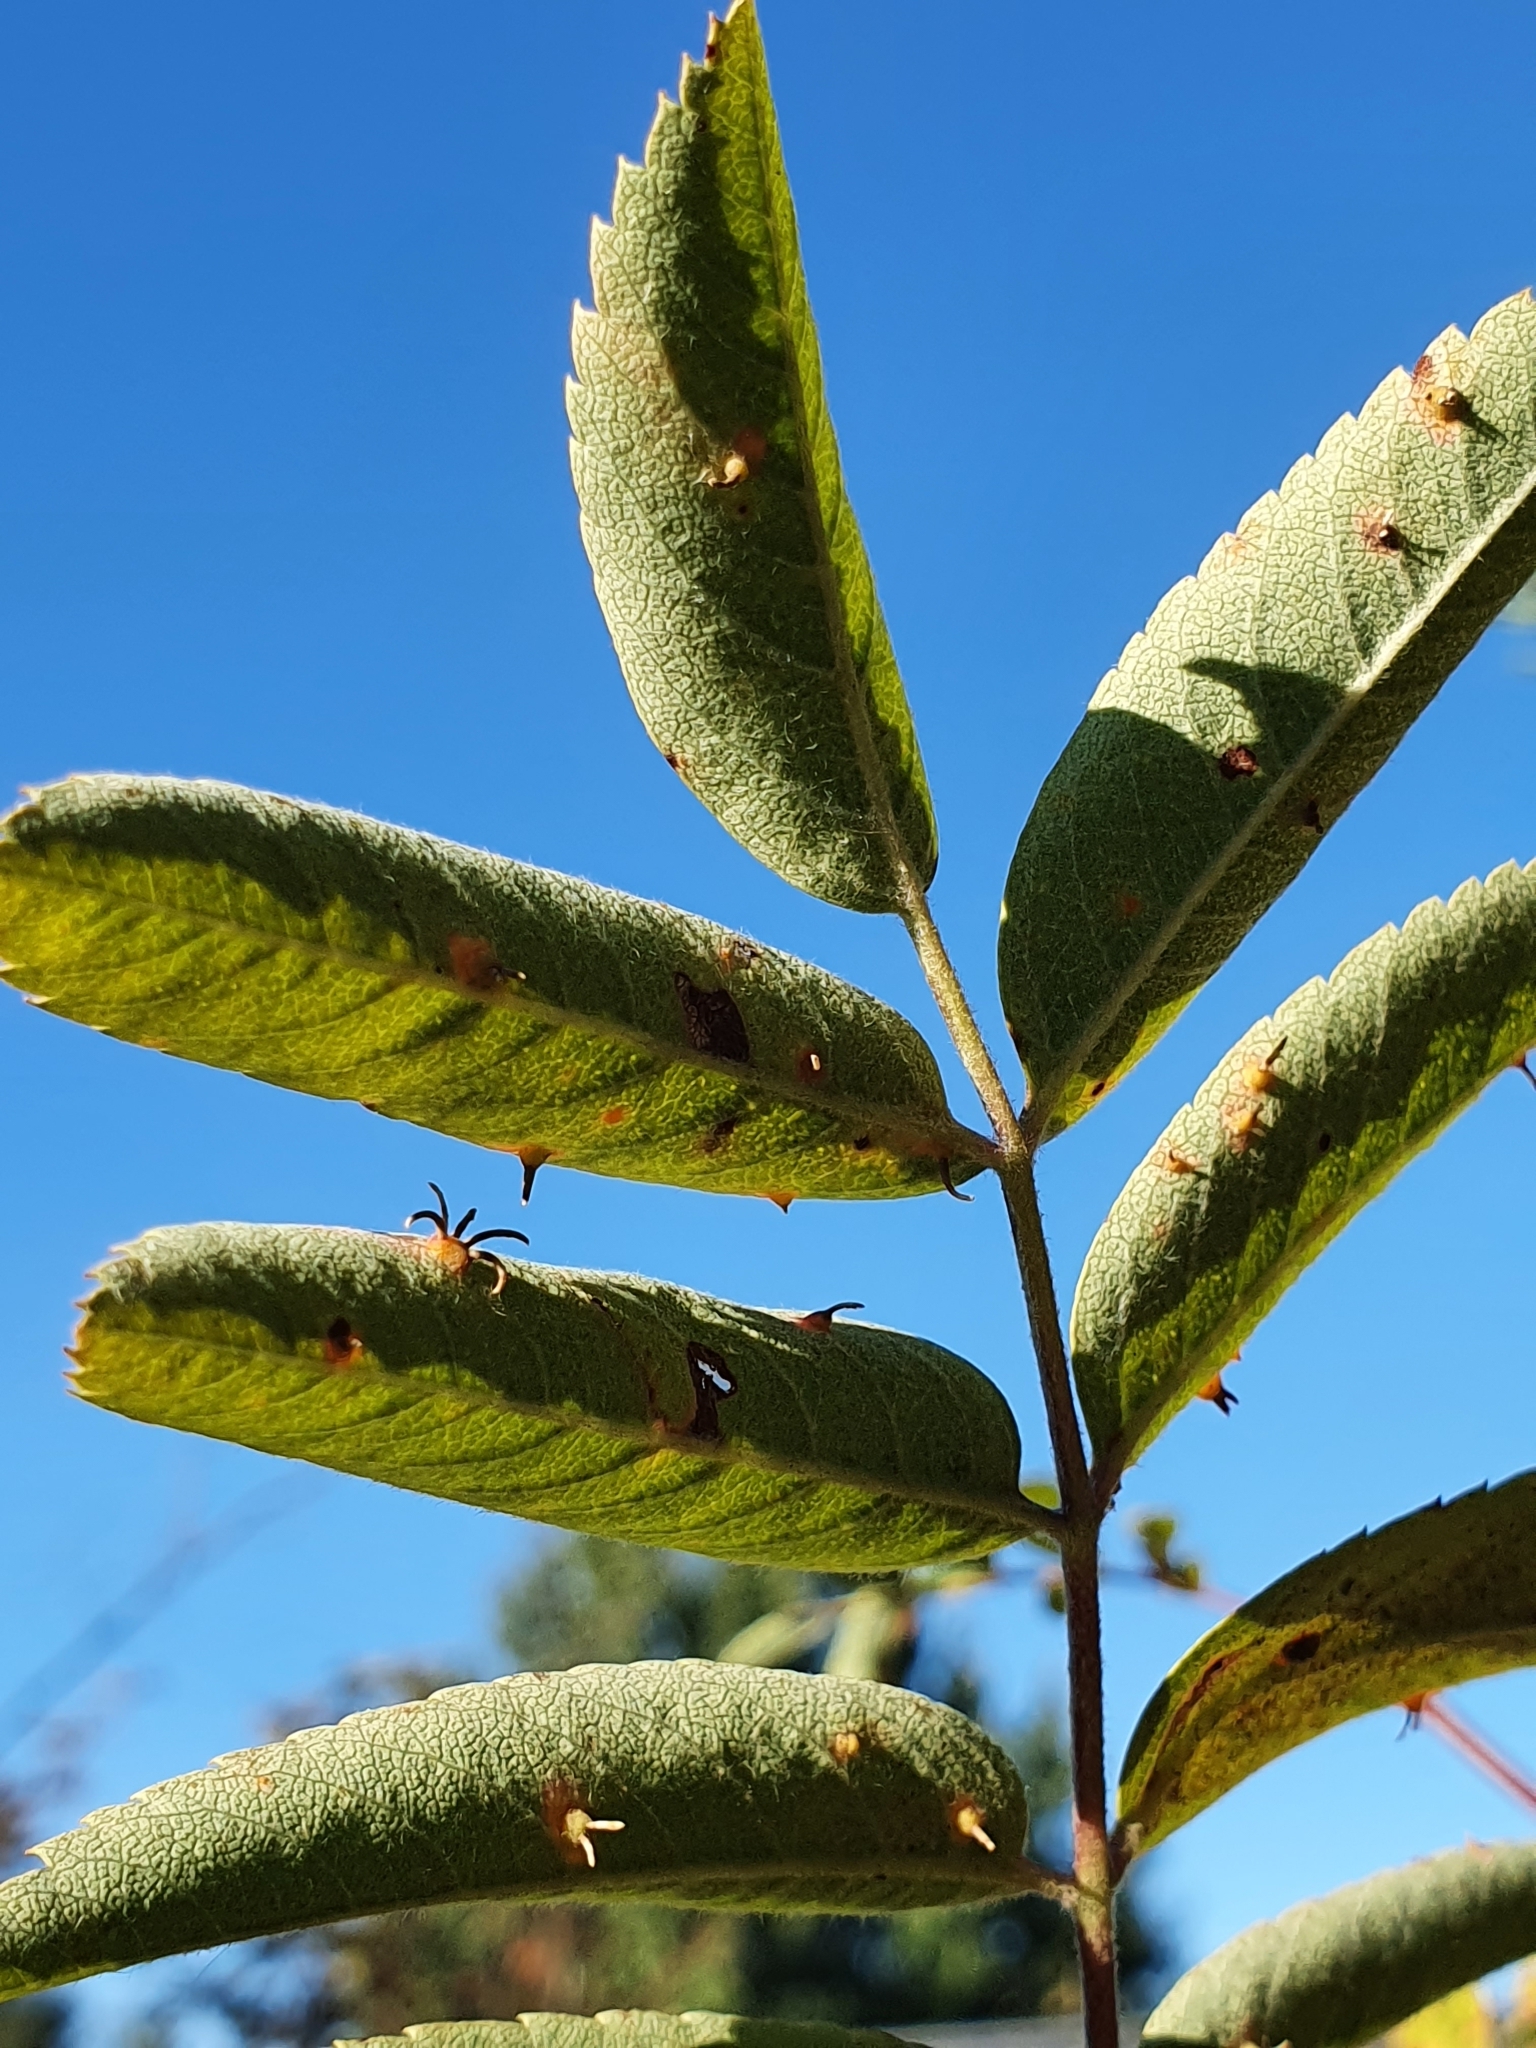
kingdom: Fungi
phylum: Basidiomycota
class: Pucciniomycetes
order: Pucciniales
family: Gymnosporangiaceae
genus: Gymnosporangium
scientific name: Gymnosporangium cornutum
